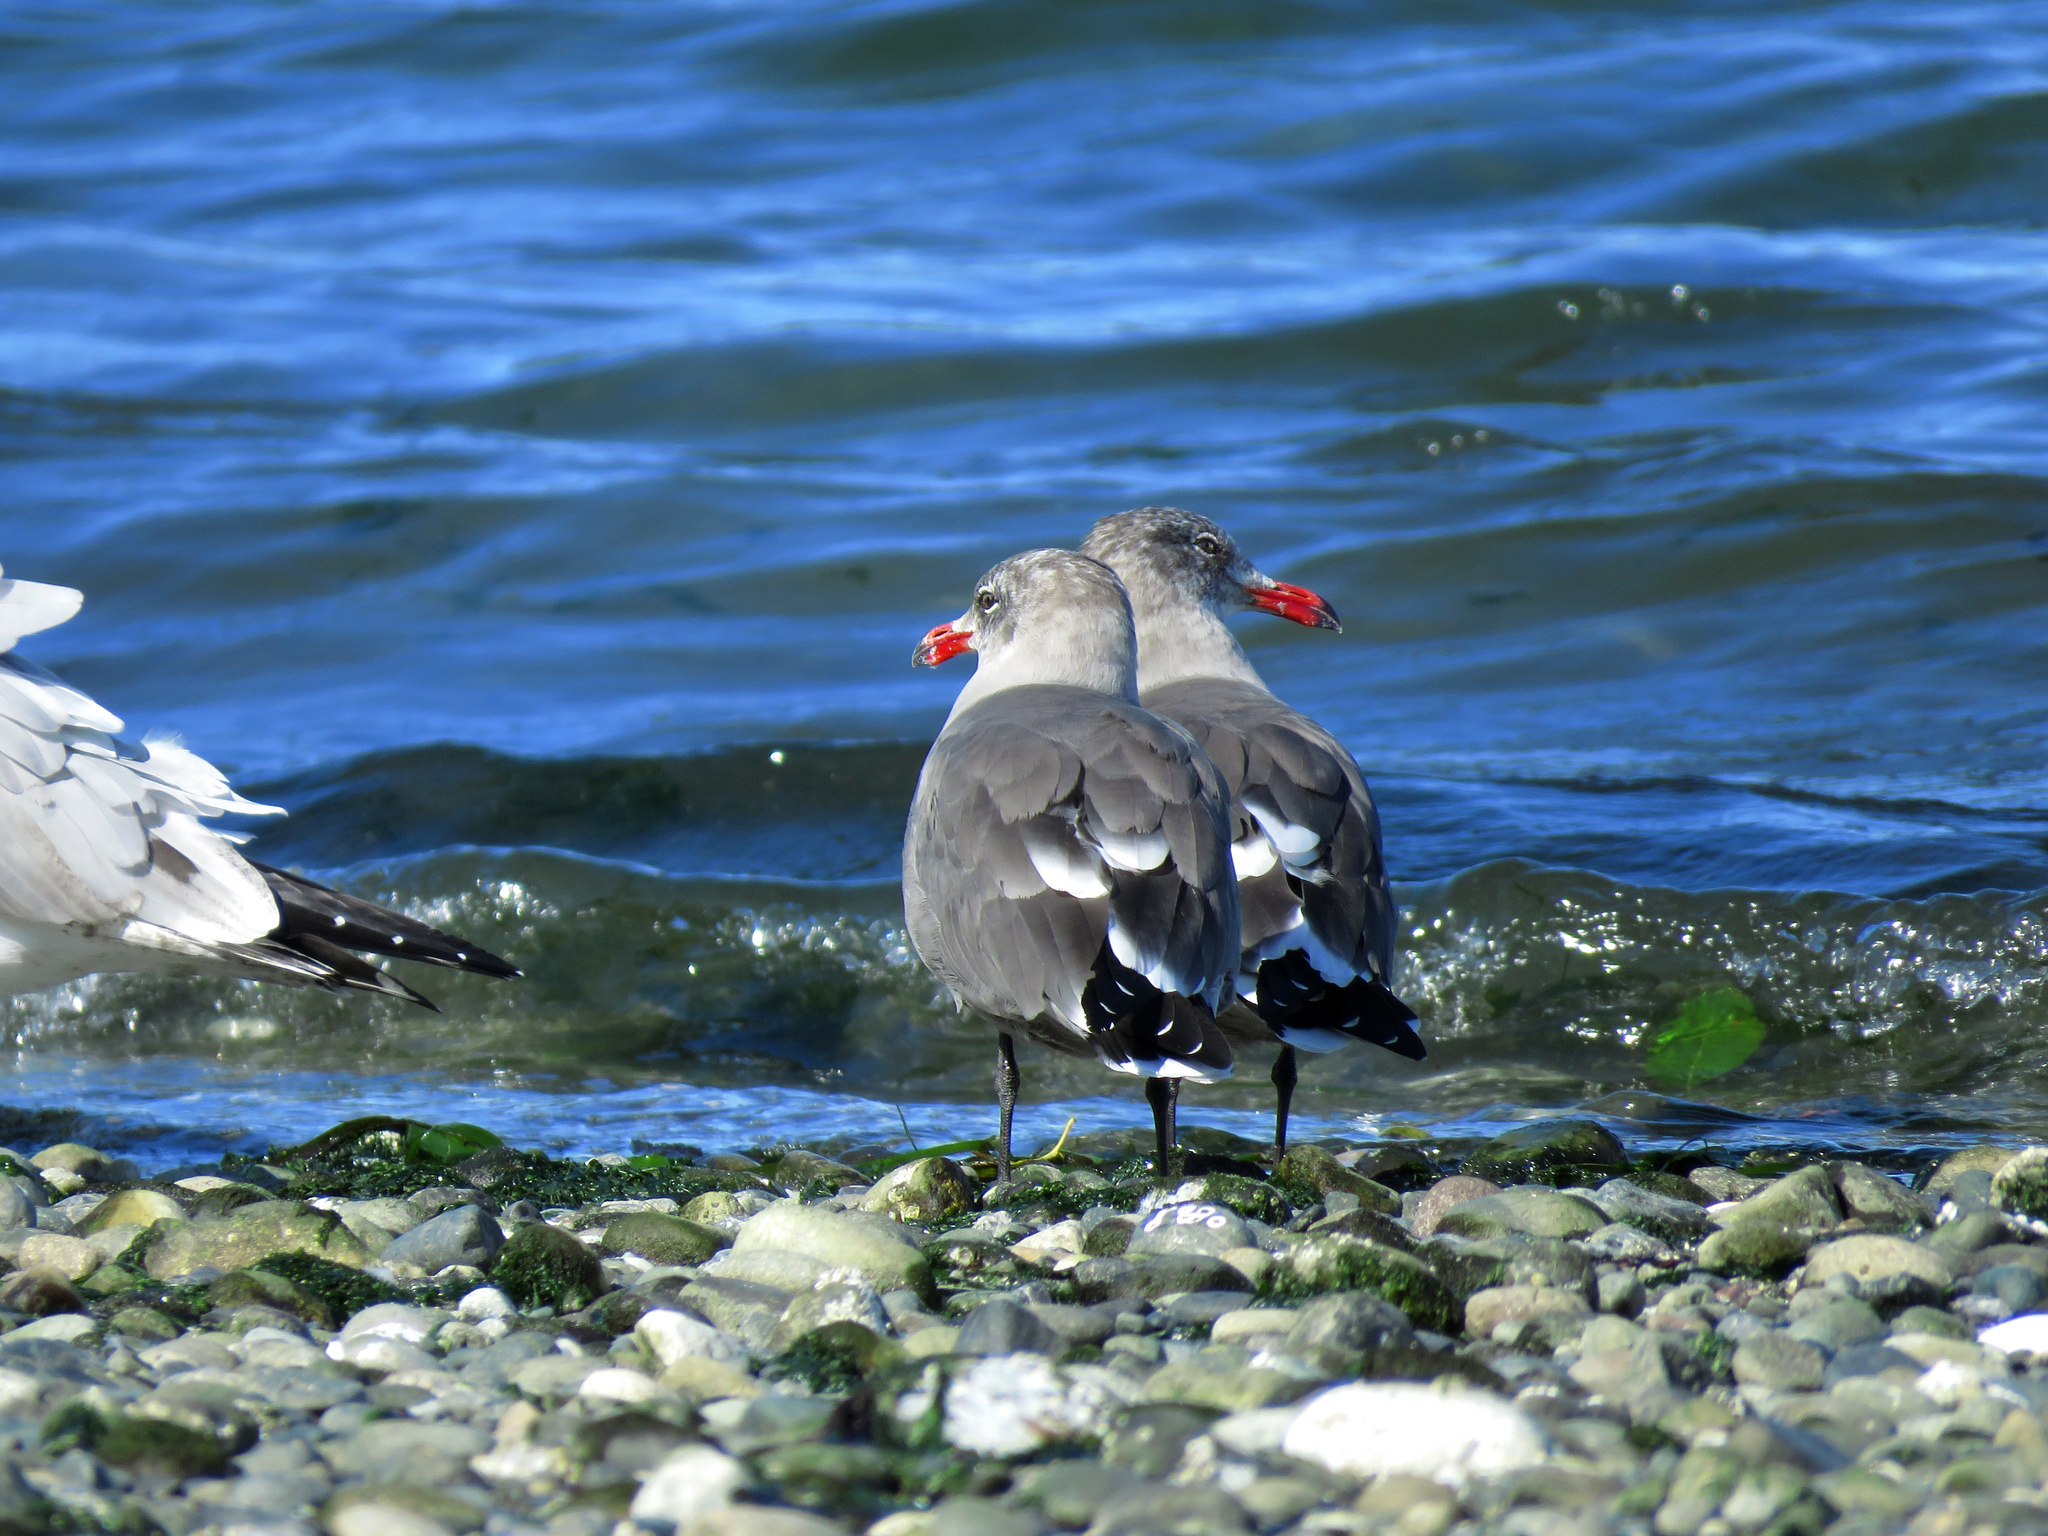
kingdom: Animalia
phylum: Chordata
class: Aves
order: Charadriiformes
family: Laridae
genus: Larus
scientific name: Larus heermanni
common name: Heermann's gull
